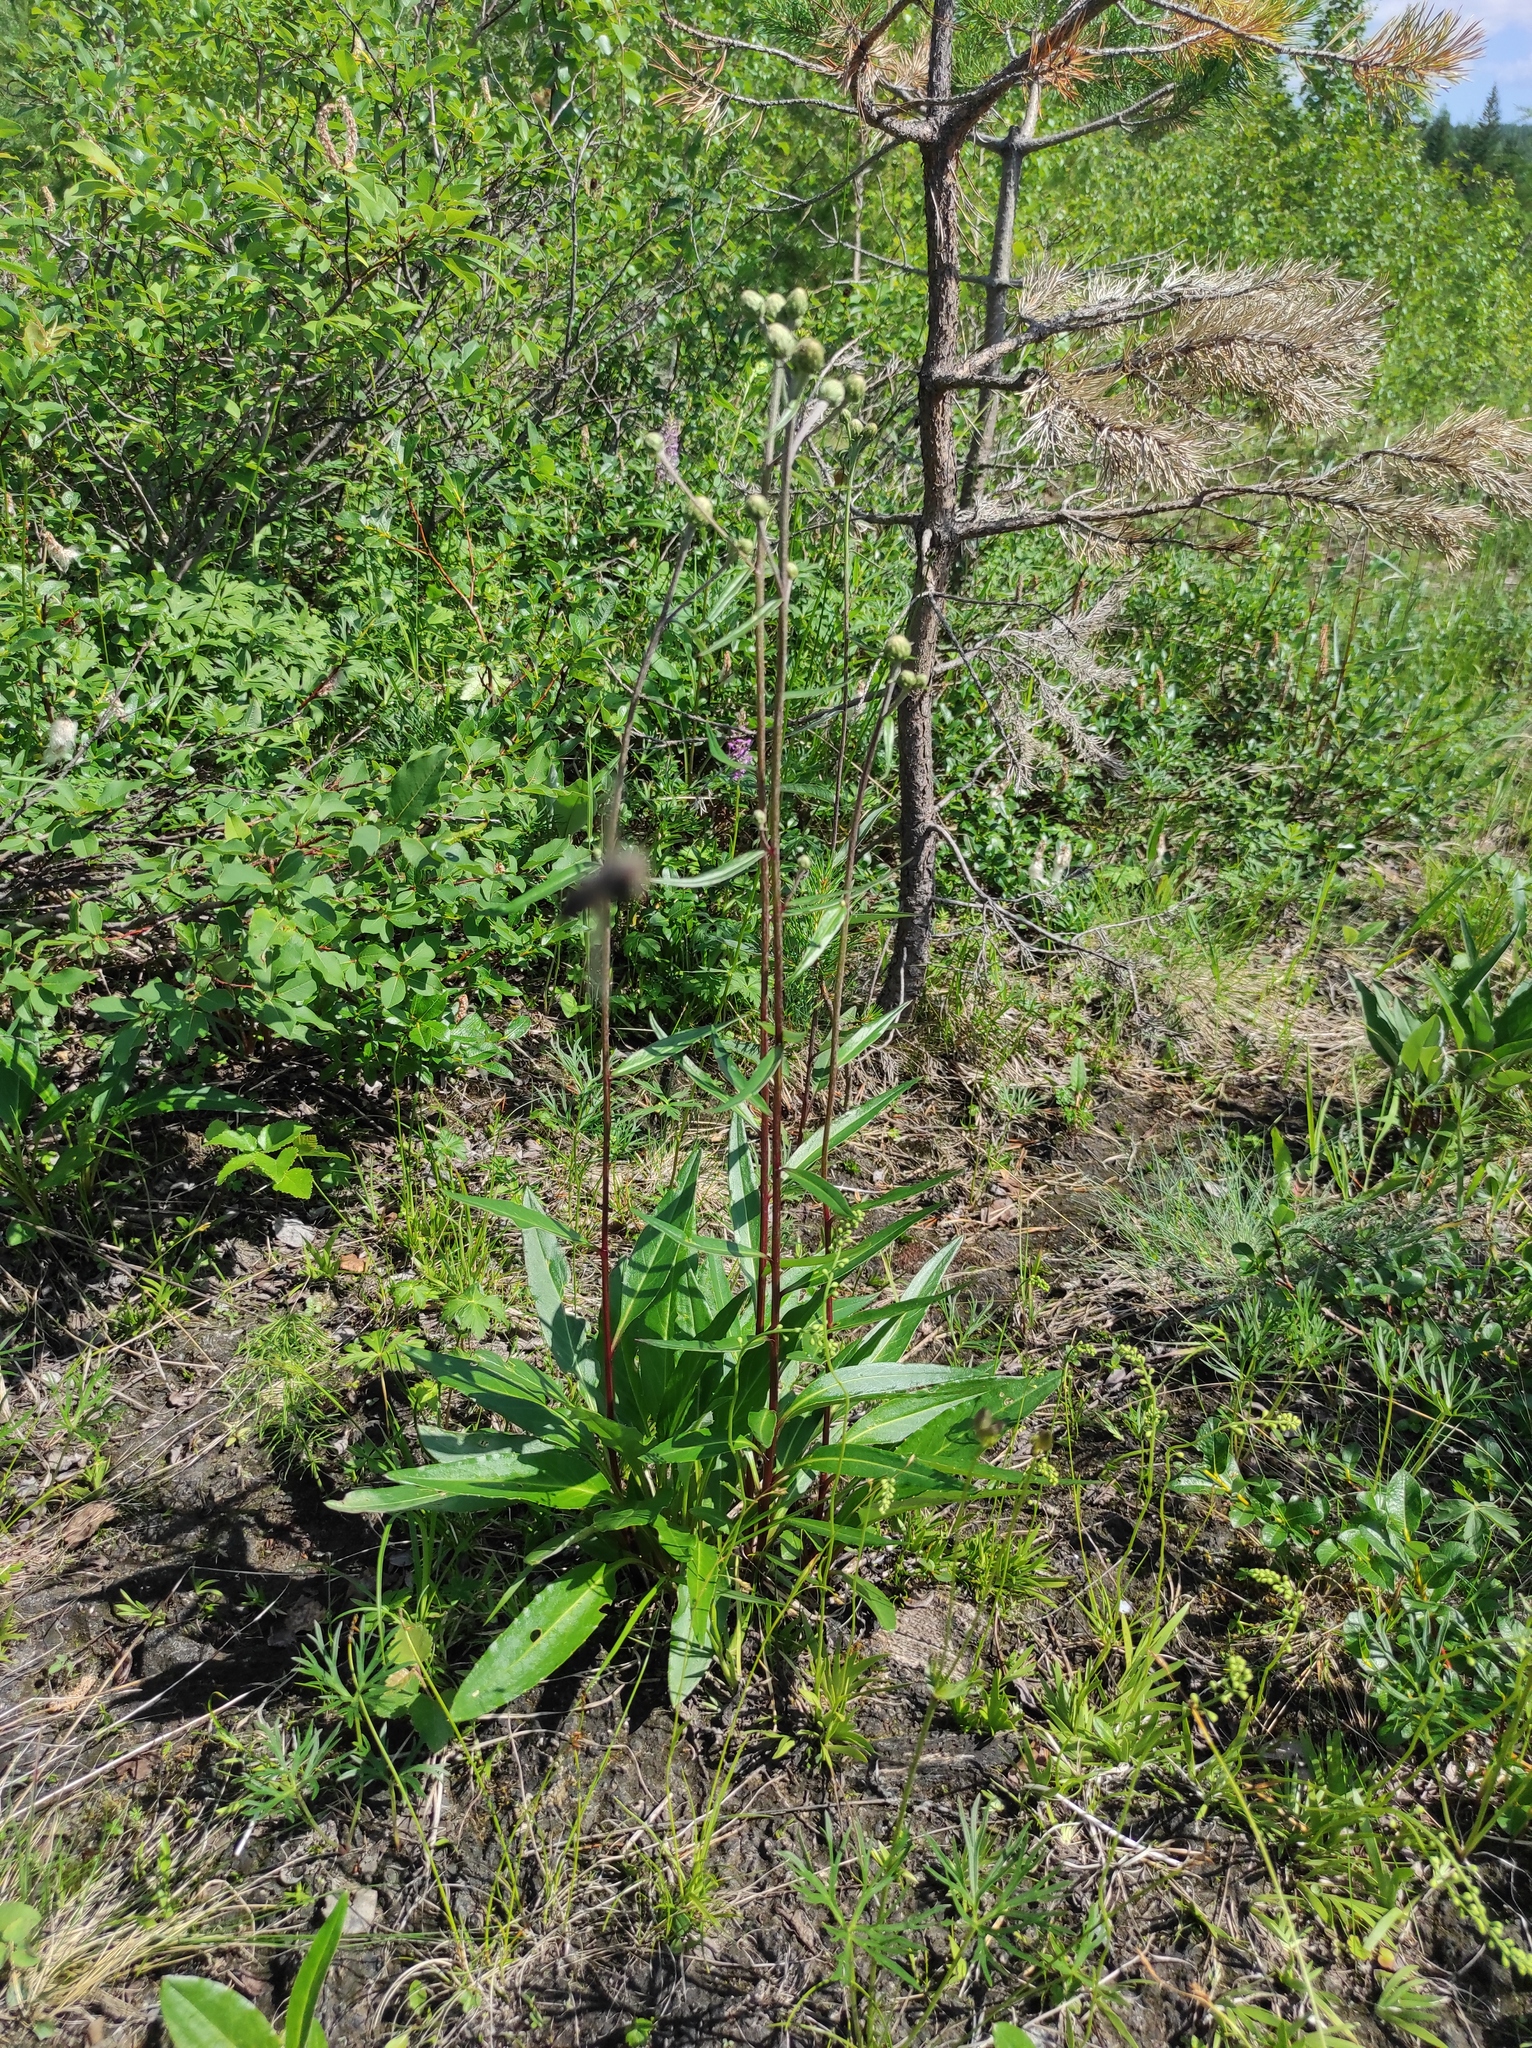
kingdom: Plantae
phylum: Tracheophyta
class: Pinopsida
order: Pinales
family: Pinaceae
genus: Pinus
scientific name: Pinus sylvestris
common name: Scots pine
